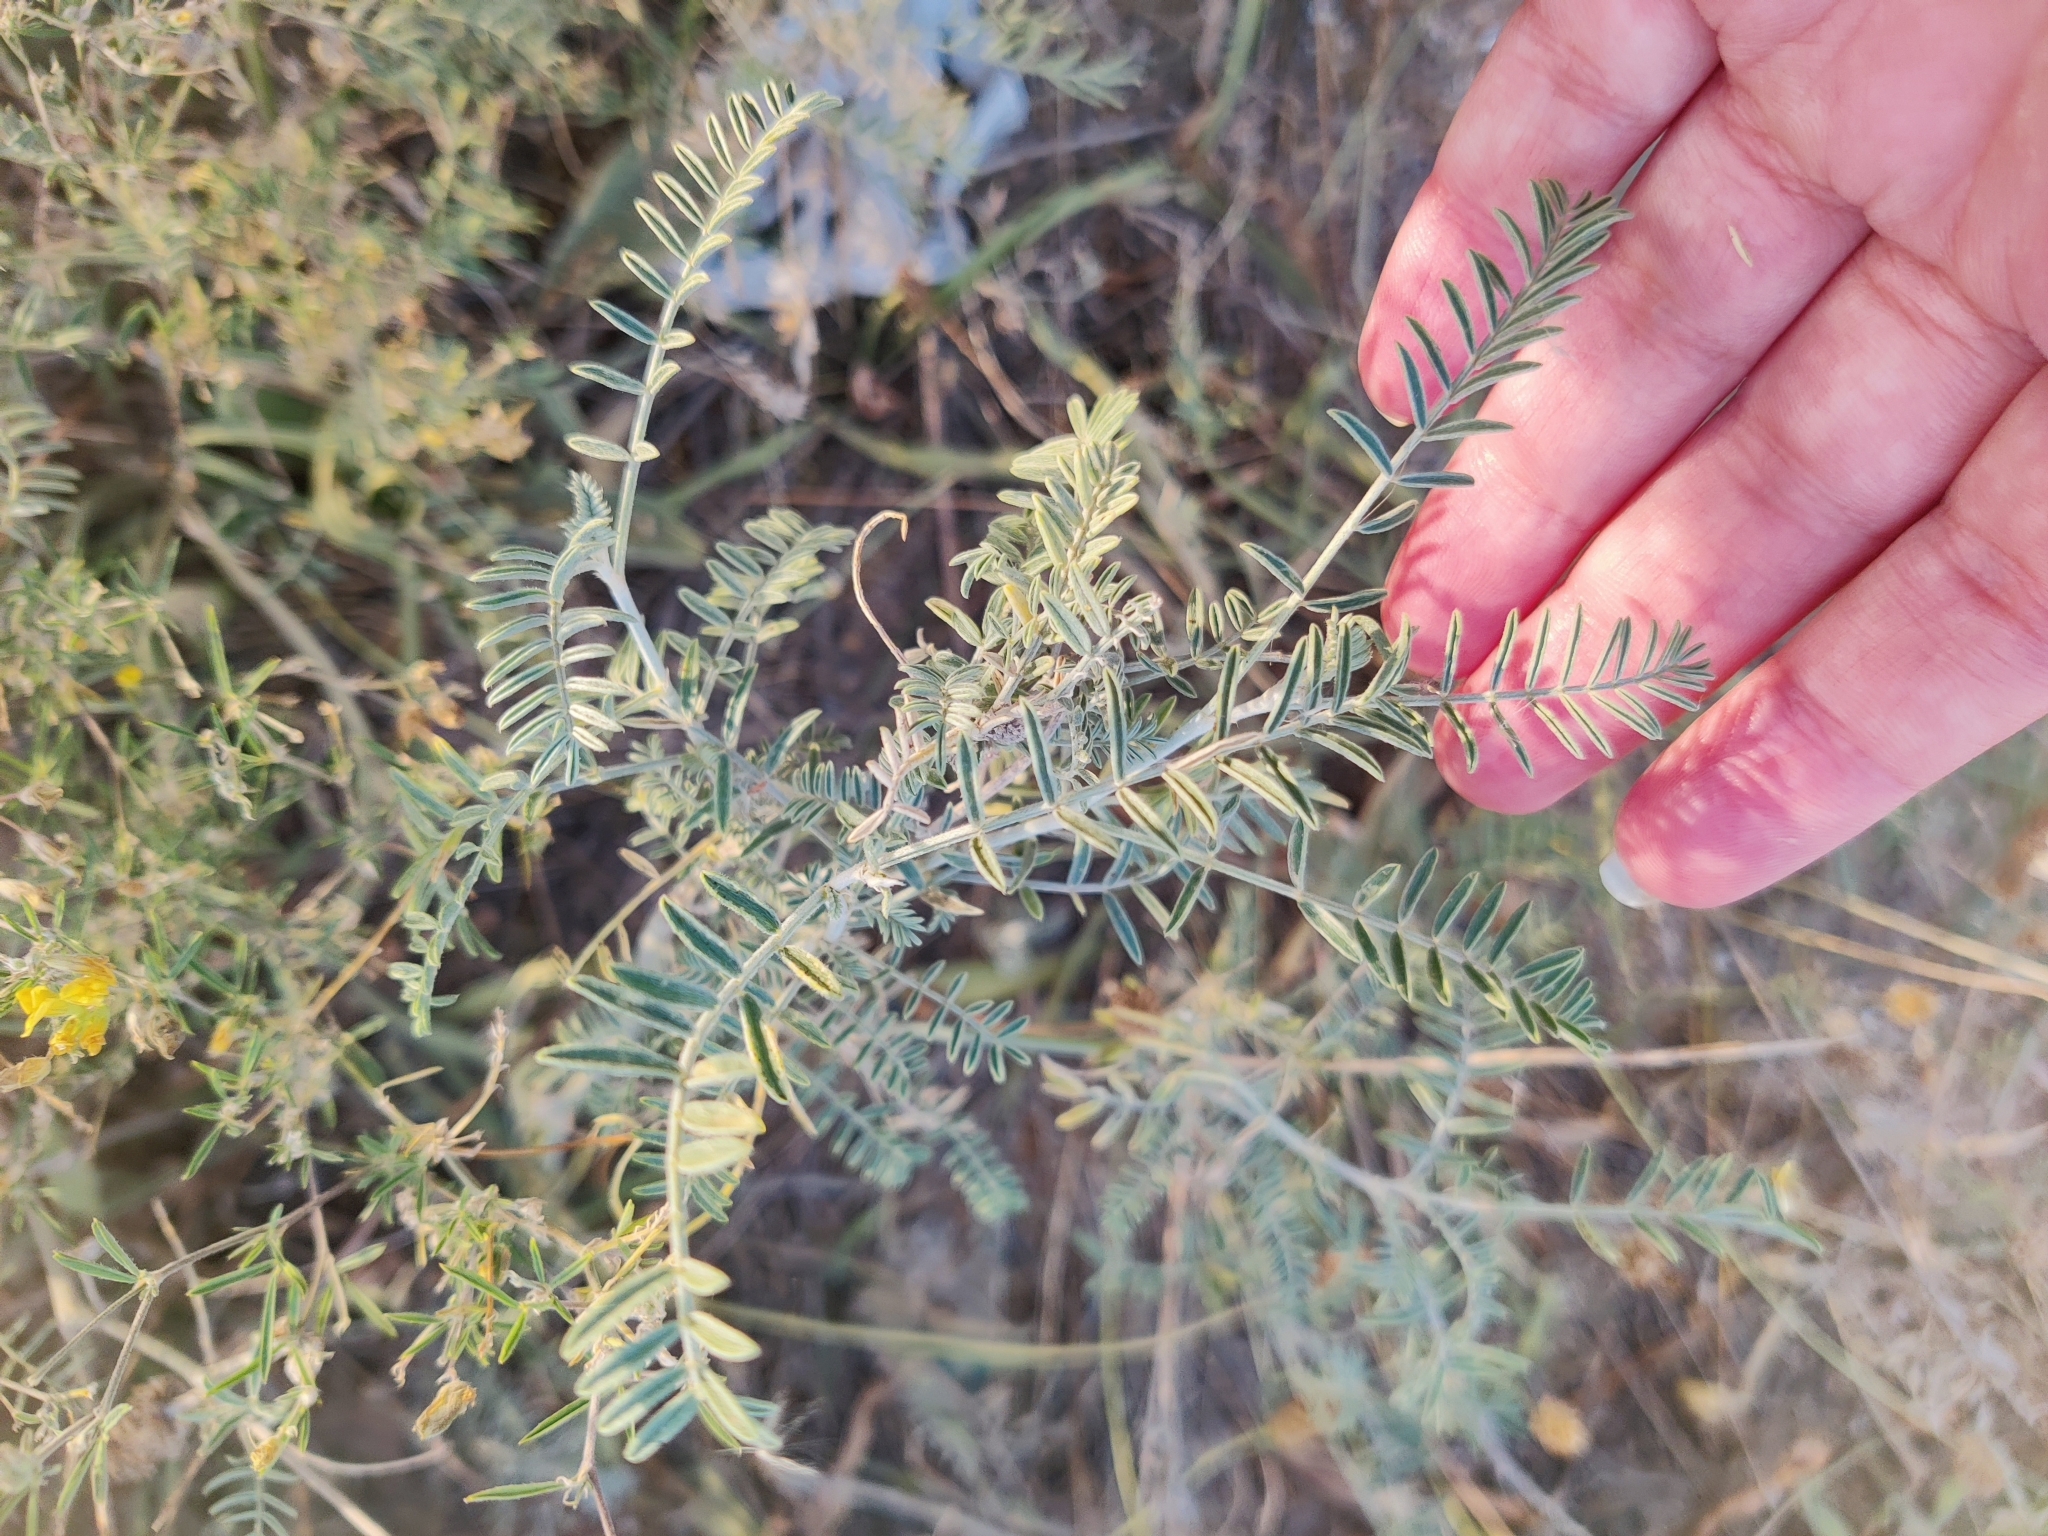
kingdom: Plantae
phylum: Tracheophyta
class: Magnoliopsida
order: Fabales
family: Fabaceae
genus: Astragalus
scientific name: Astragalus onobrychis
